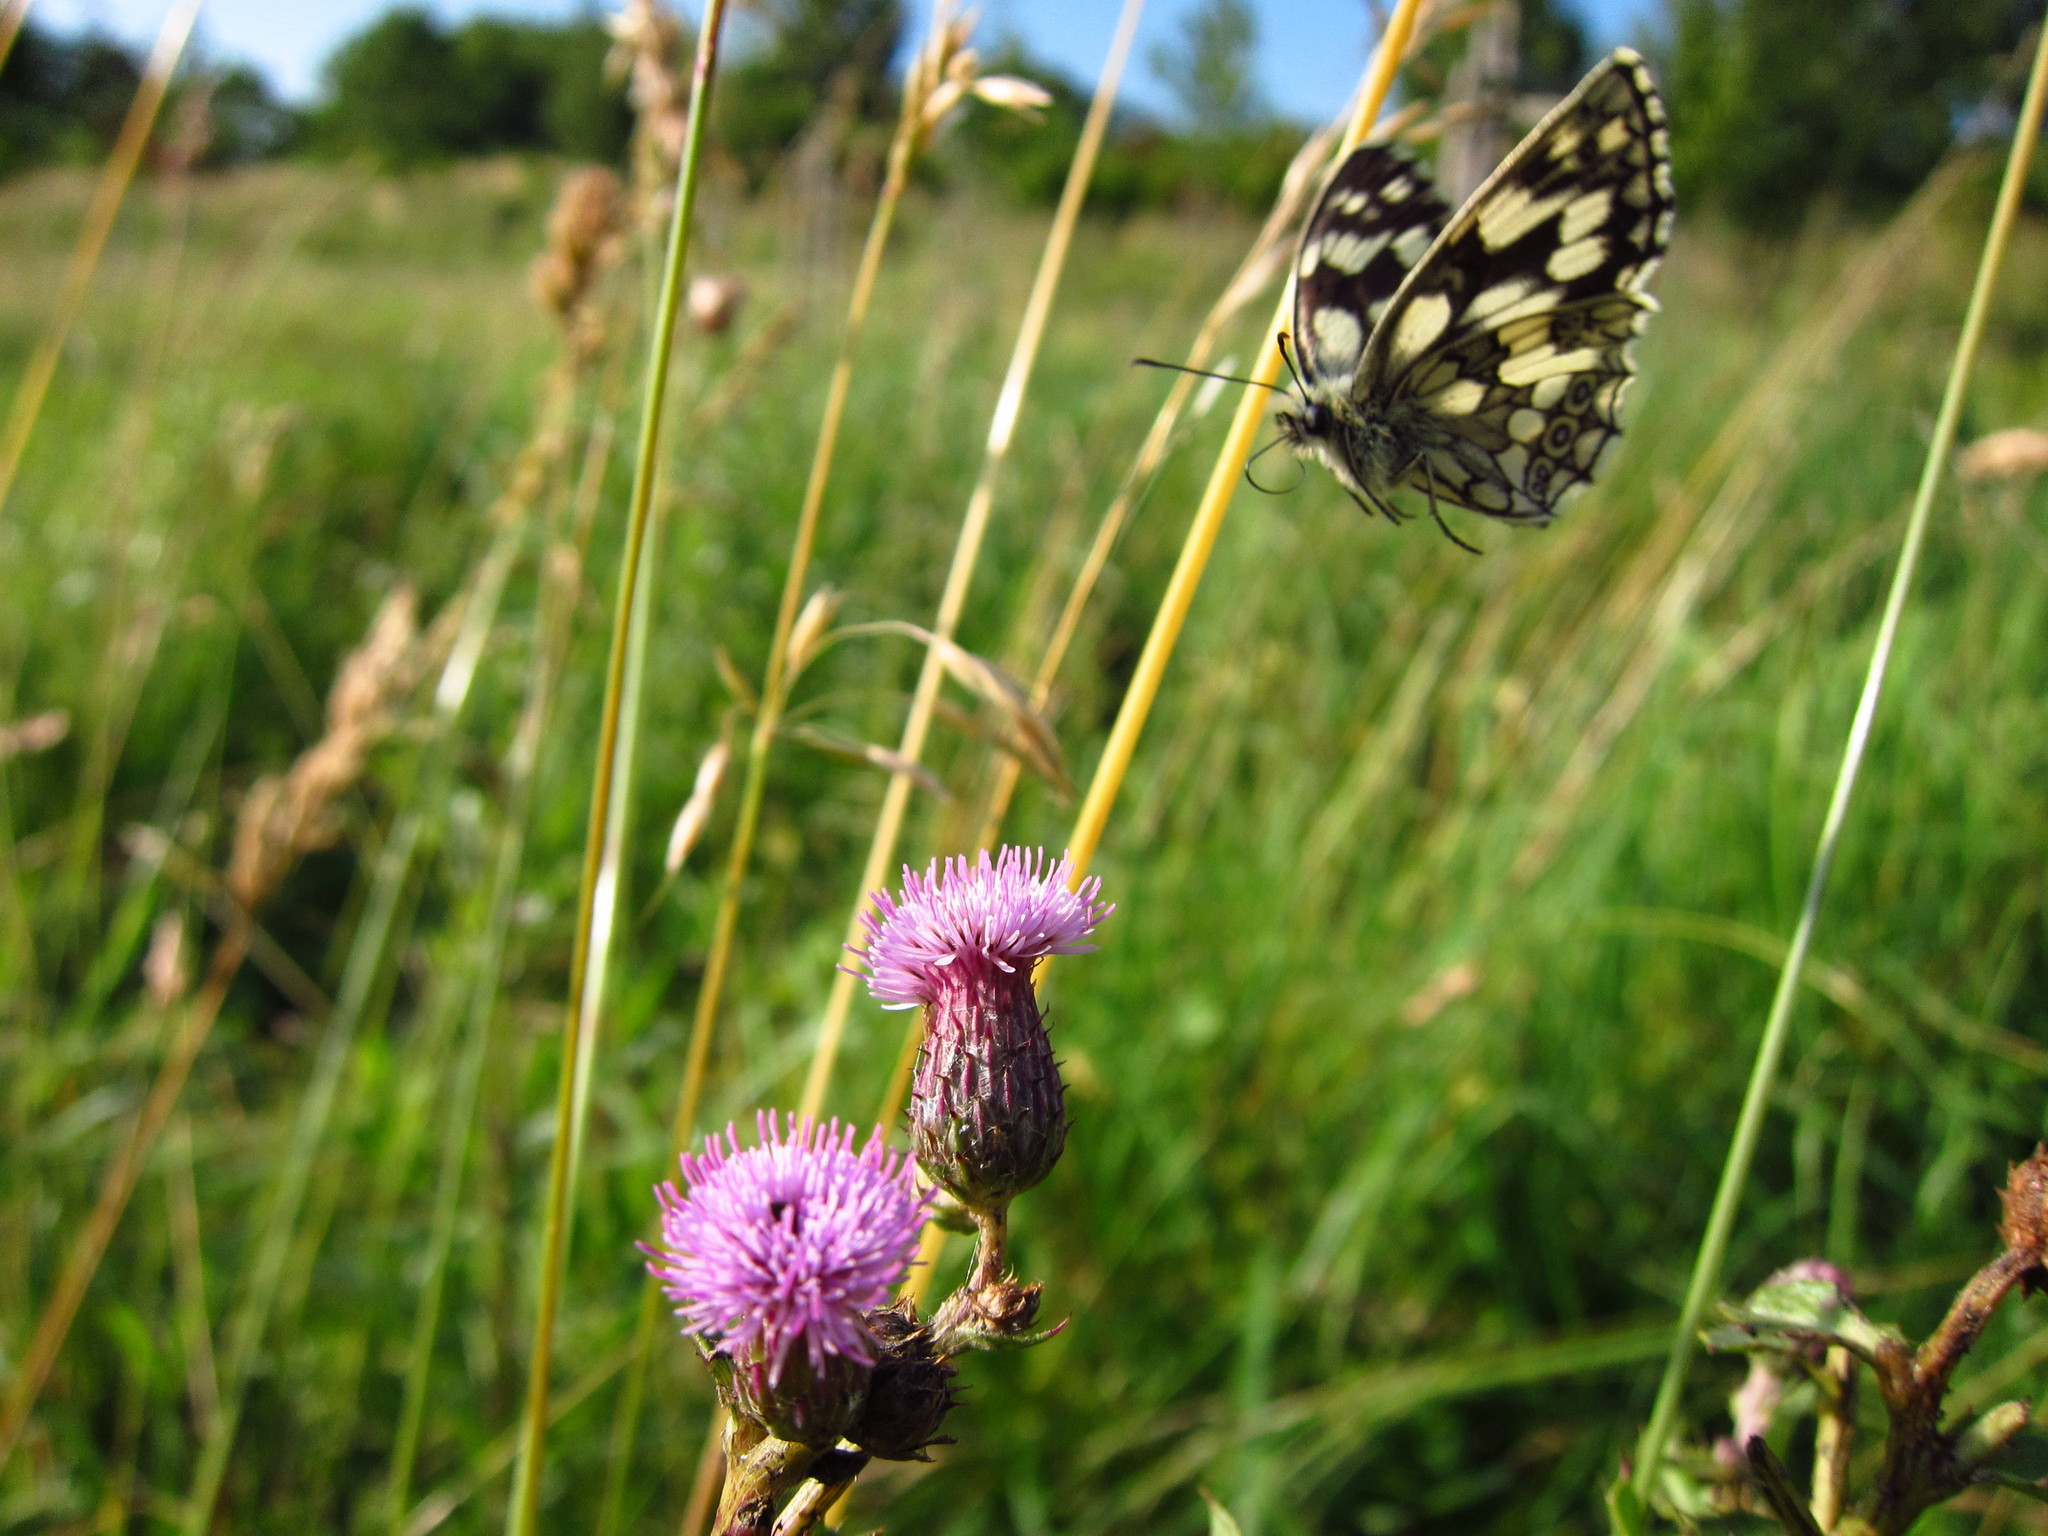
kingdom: Animalia
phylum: Arthropoda
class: Insecta
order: Lepidoptera
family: Nymphalidae
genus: Melanargia
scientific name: Melanargia galathea
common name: Marbled white
